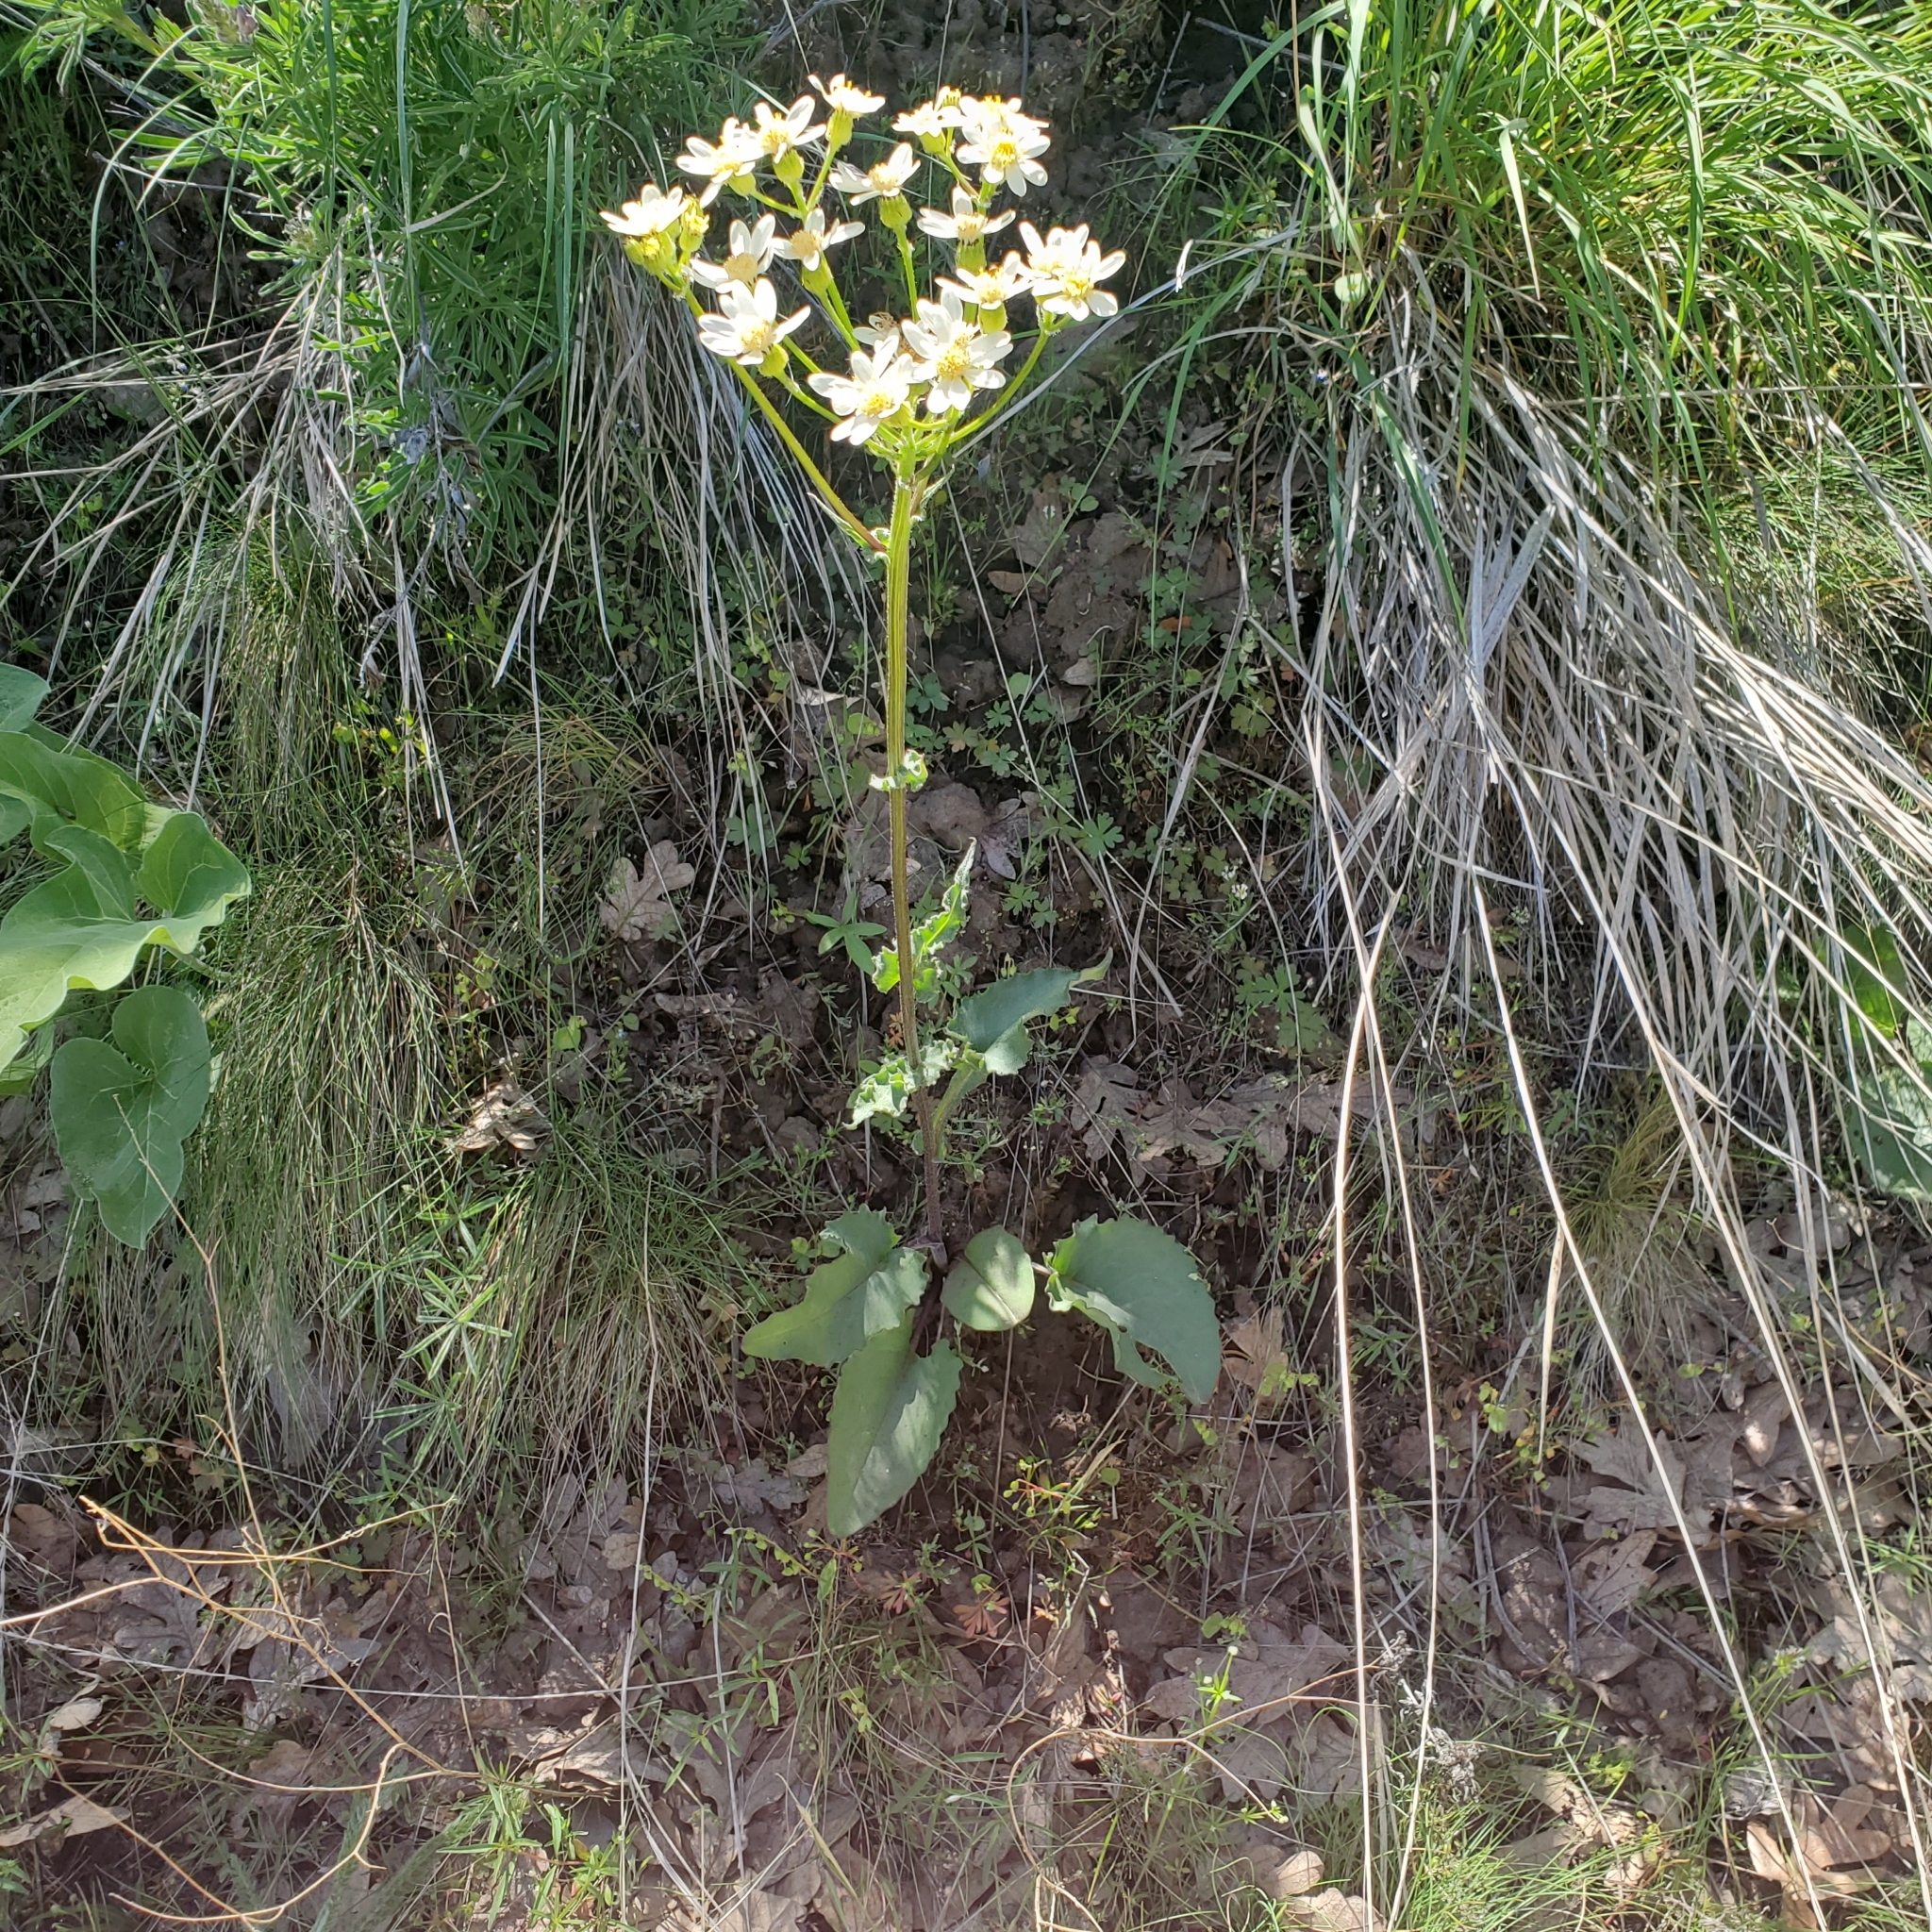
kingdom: Plantae
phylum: Tracheophyta
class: Magnoliopsida
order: Asterales
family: Asteraceae
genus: Senecio
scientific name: Senecio integerrimus
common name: Gaugeplant
